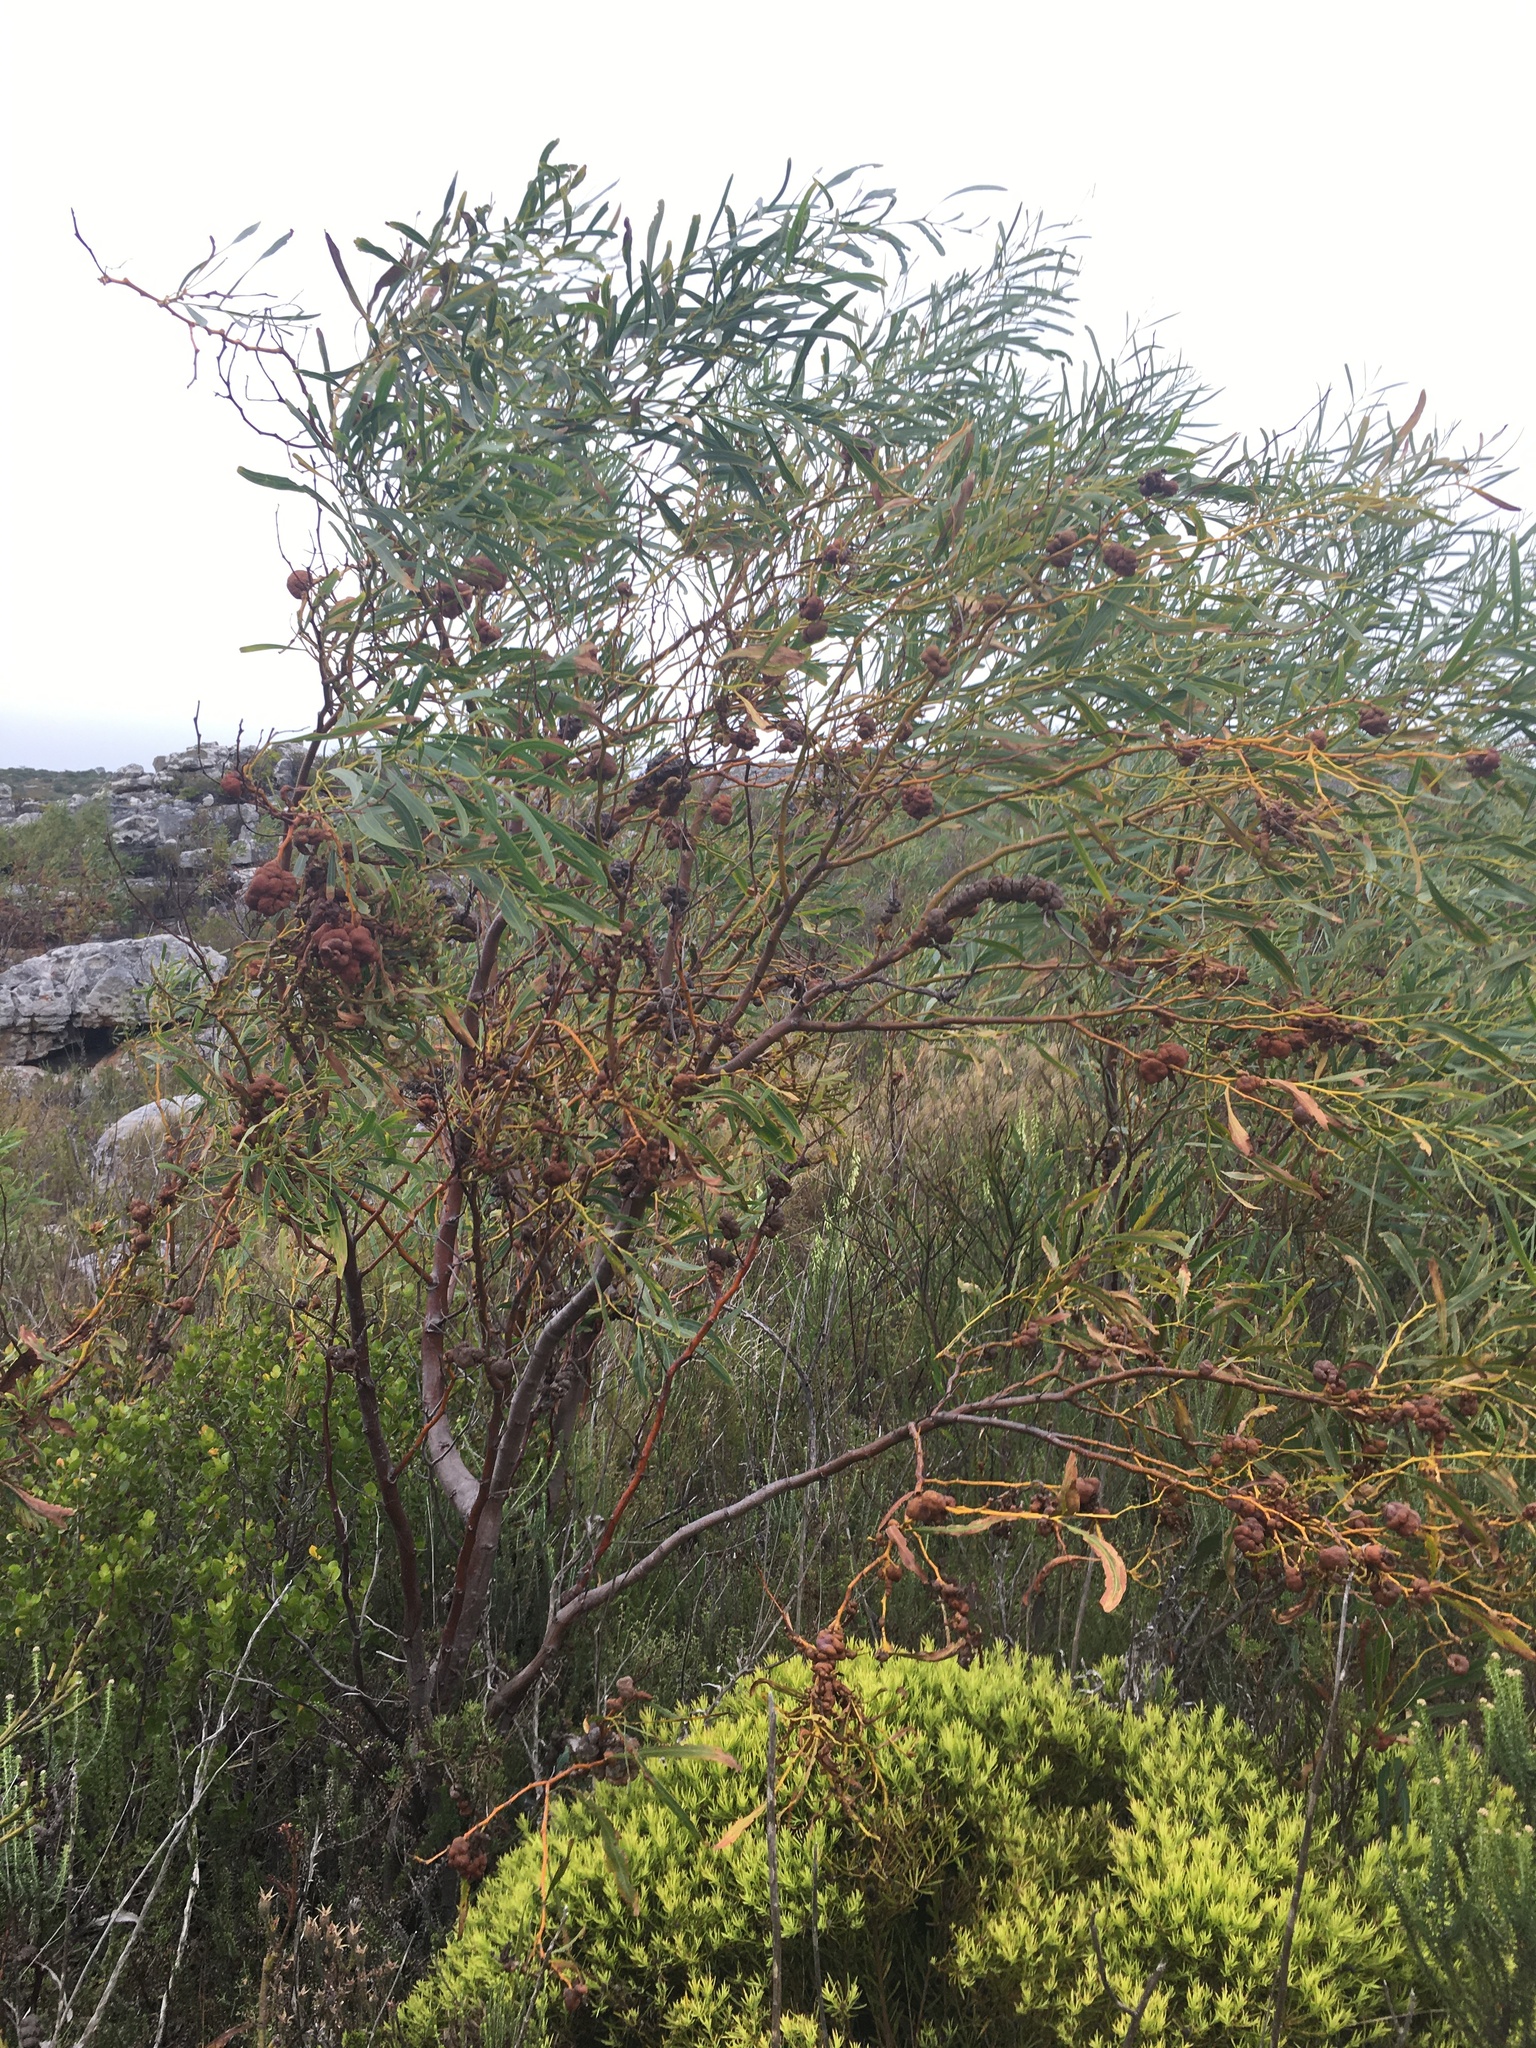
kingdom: Fungi
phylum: Basidiomycota
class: Pucciniomycetes
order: Pucciniales
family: Uromycladiaceae
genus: Uromycladium
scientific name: Uromycladium morrisii
